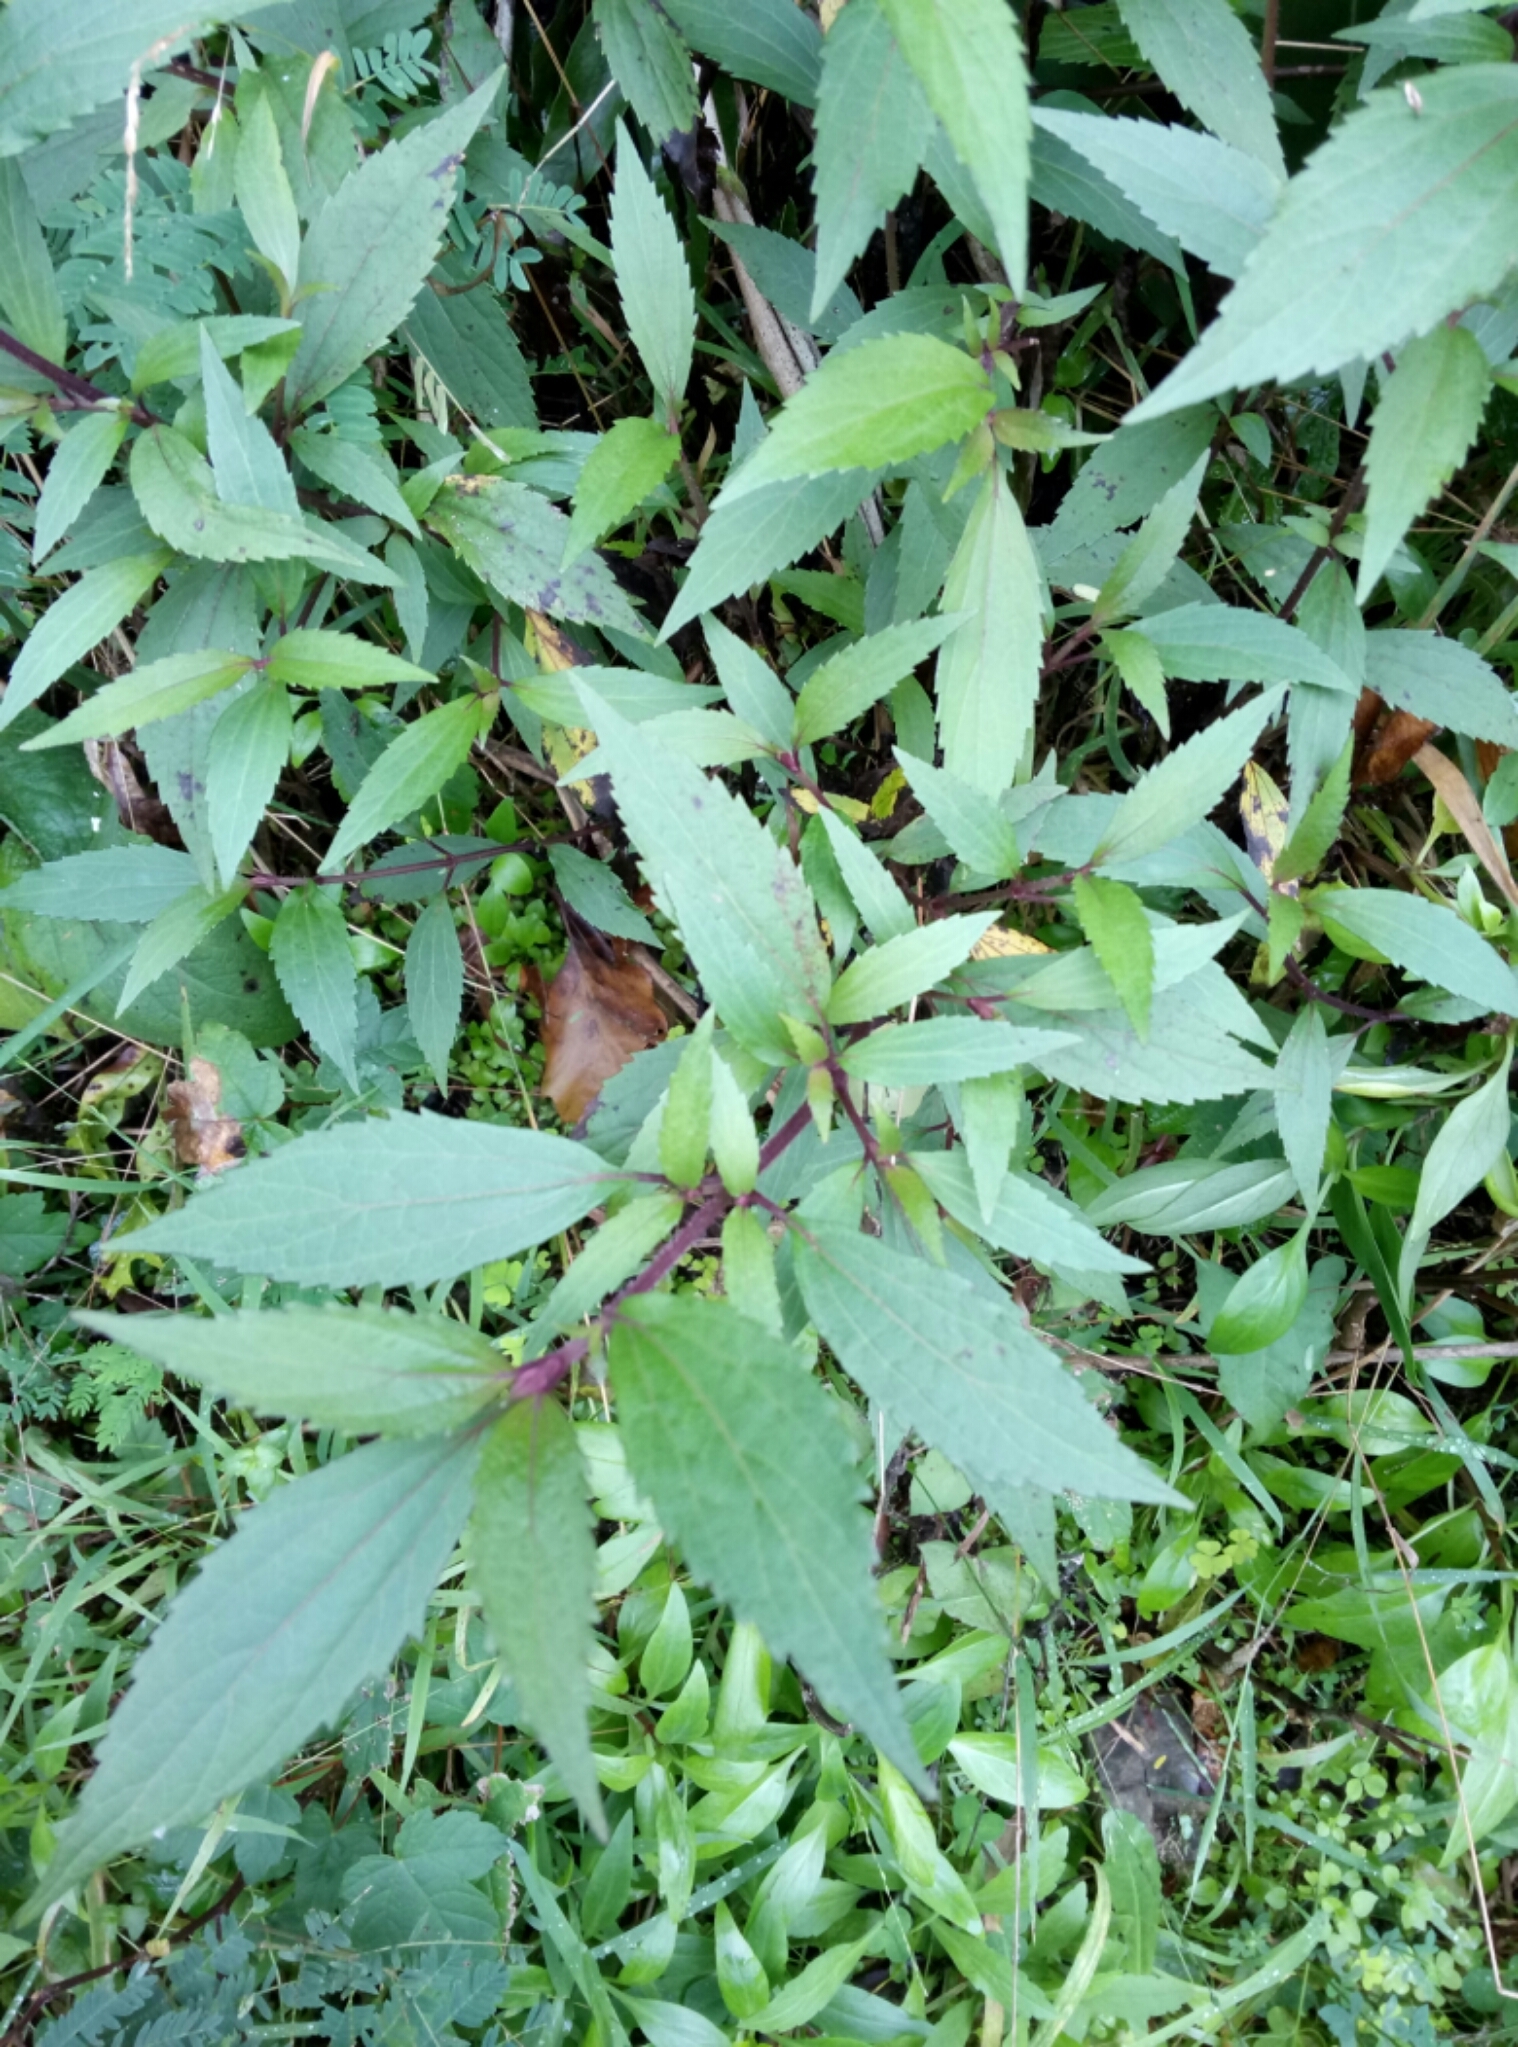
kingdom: Plantae
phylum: Tracheophyta
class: Magnoliopsida
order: Asterales
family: Asteraceae
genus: Bidens
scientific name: Bidens frondosa
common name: Beggarticks
